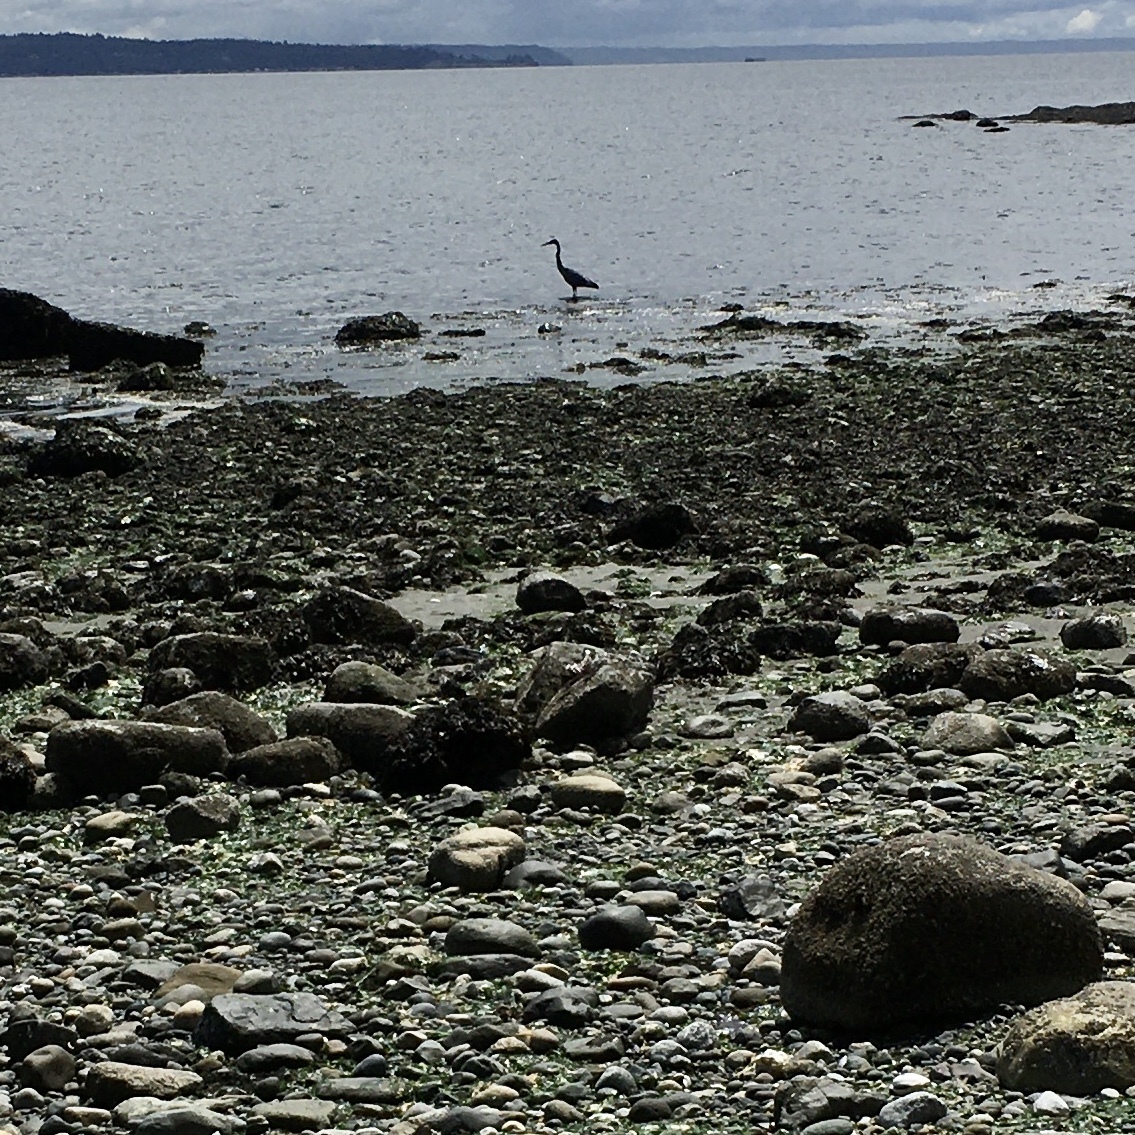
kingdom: Animalia
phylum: Chordata
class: Aves
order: Pelecaniformes
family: Ardeidae
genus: Ardea
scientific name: Ardea herodias
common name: Great blue heron
